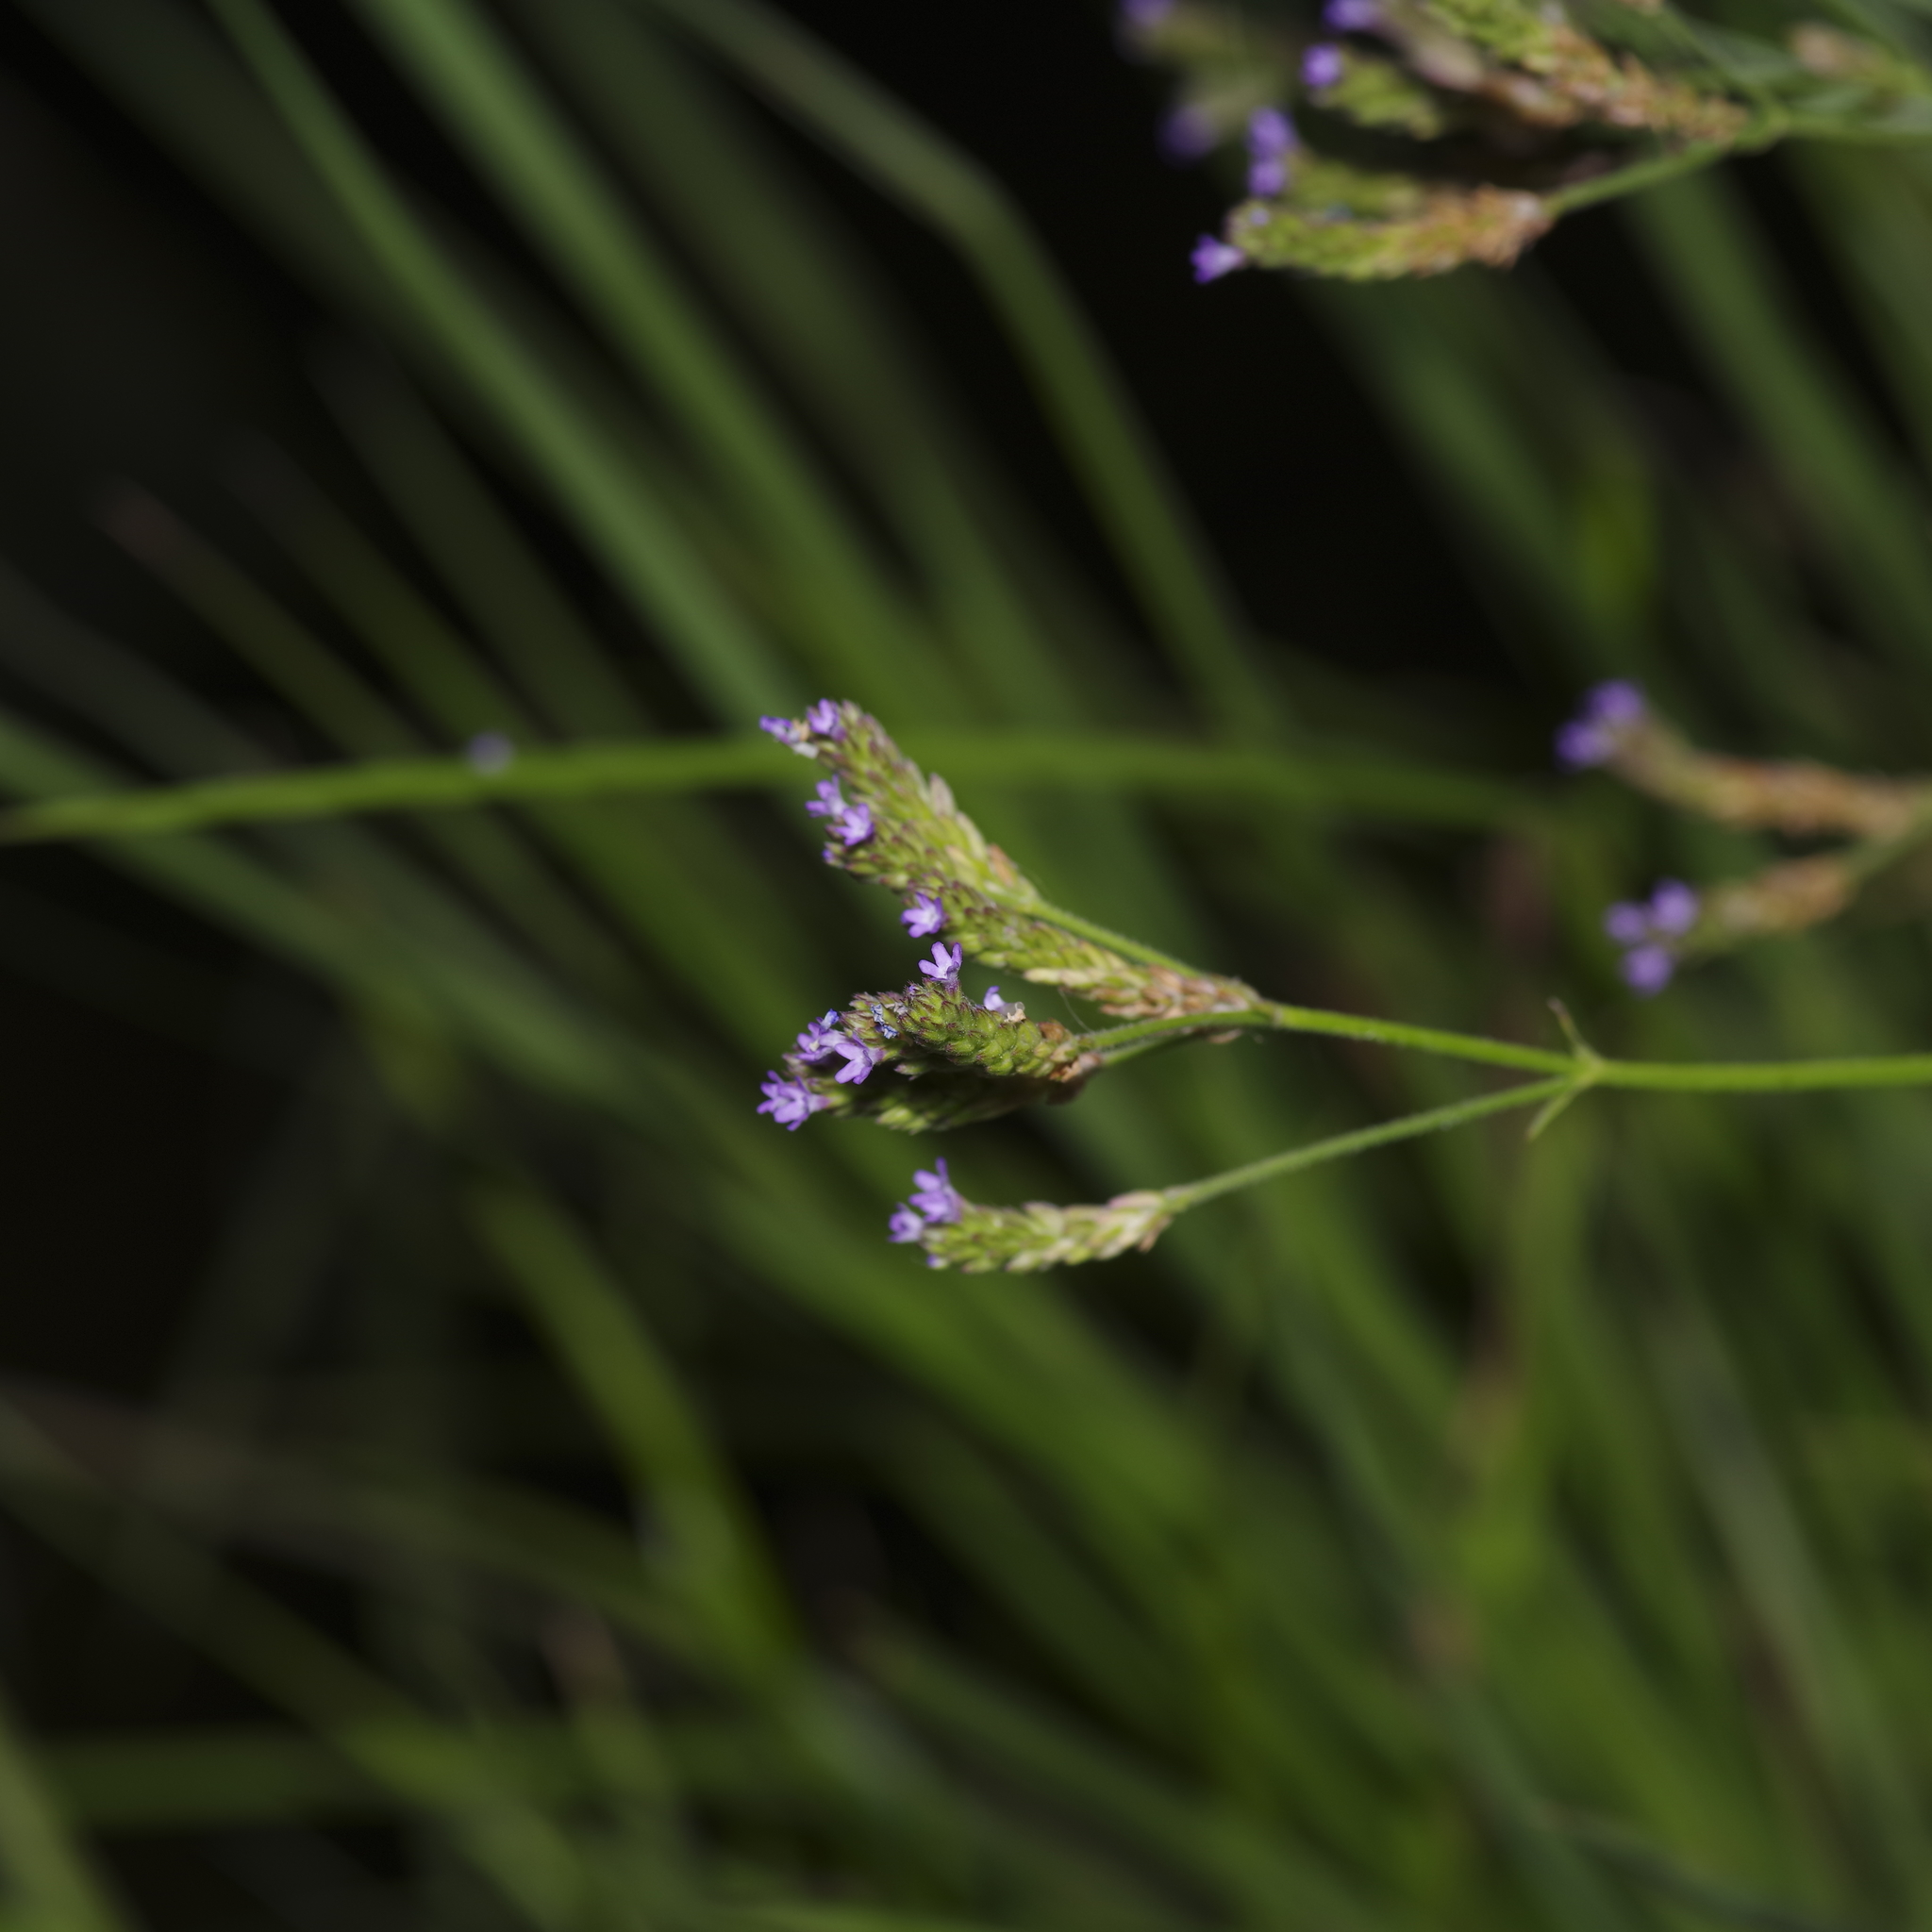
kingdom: Plantae
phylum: Tracheophyta
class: Magnoliopsida
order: Lamiales
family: Verbenaceae
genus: Verbena
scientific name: Verbena brasiliensis
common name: Brazilian vervain
